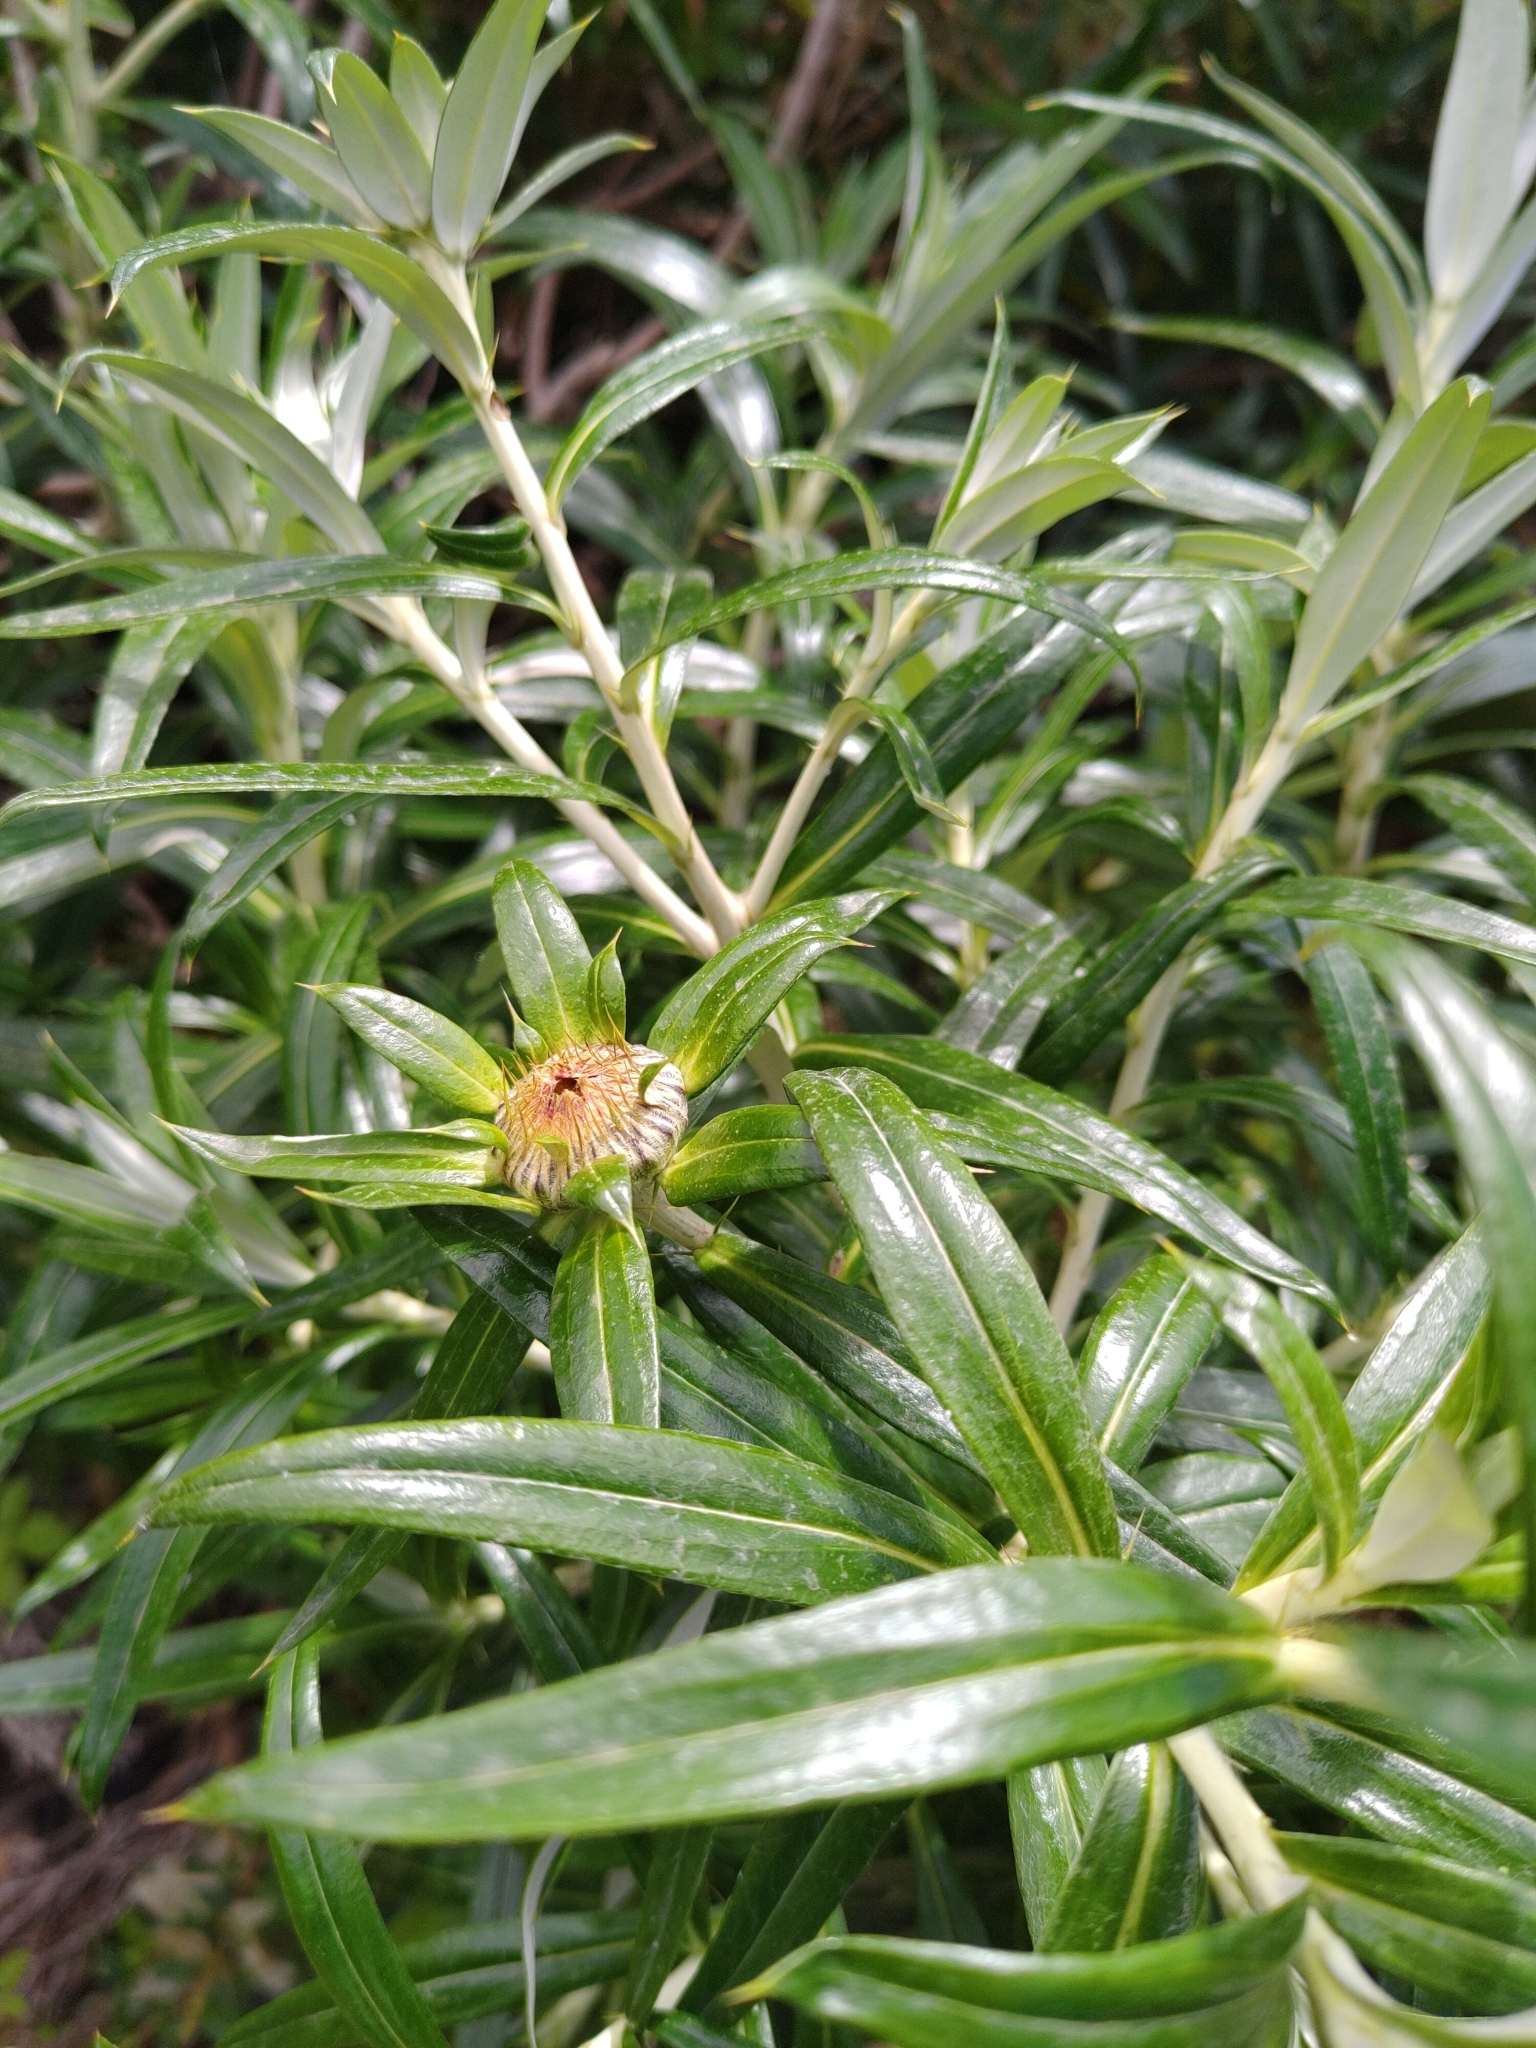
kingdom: Plantae
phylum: Tracheophyta
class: Magnoliopsida
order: Asterales
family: Asteraceae
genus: Carlina
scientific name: Carlina salicifolia
